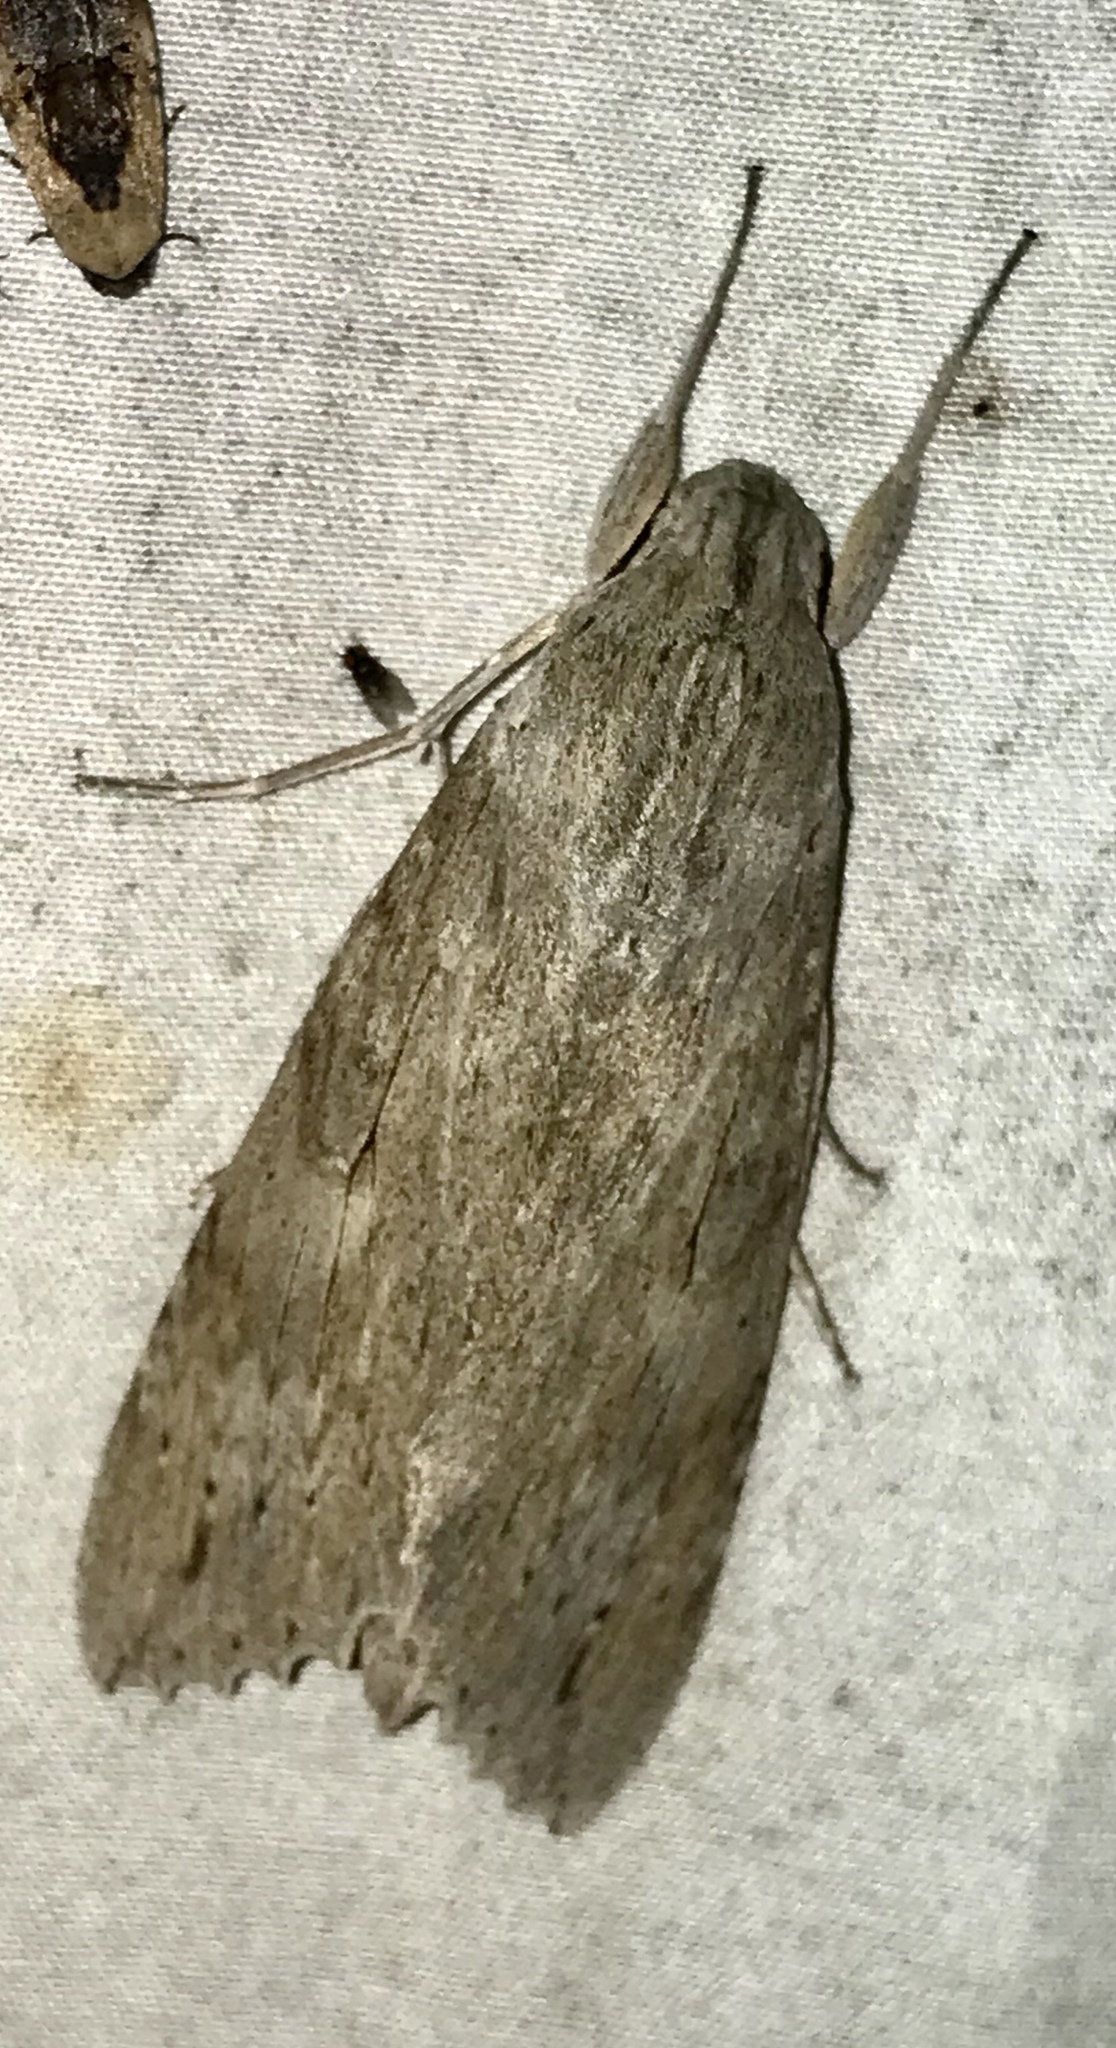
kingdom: Animalia
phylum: Arthropoda
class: Insecta
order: Lepidoptera
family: Sphingidae
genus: Erinnyis
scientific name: Erinnyis ello
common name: Ello sphinx
